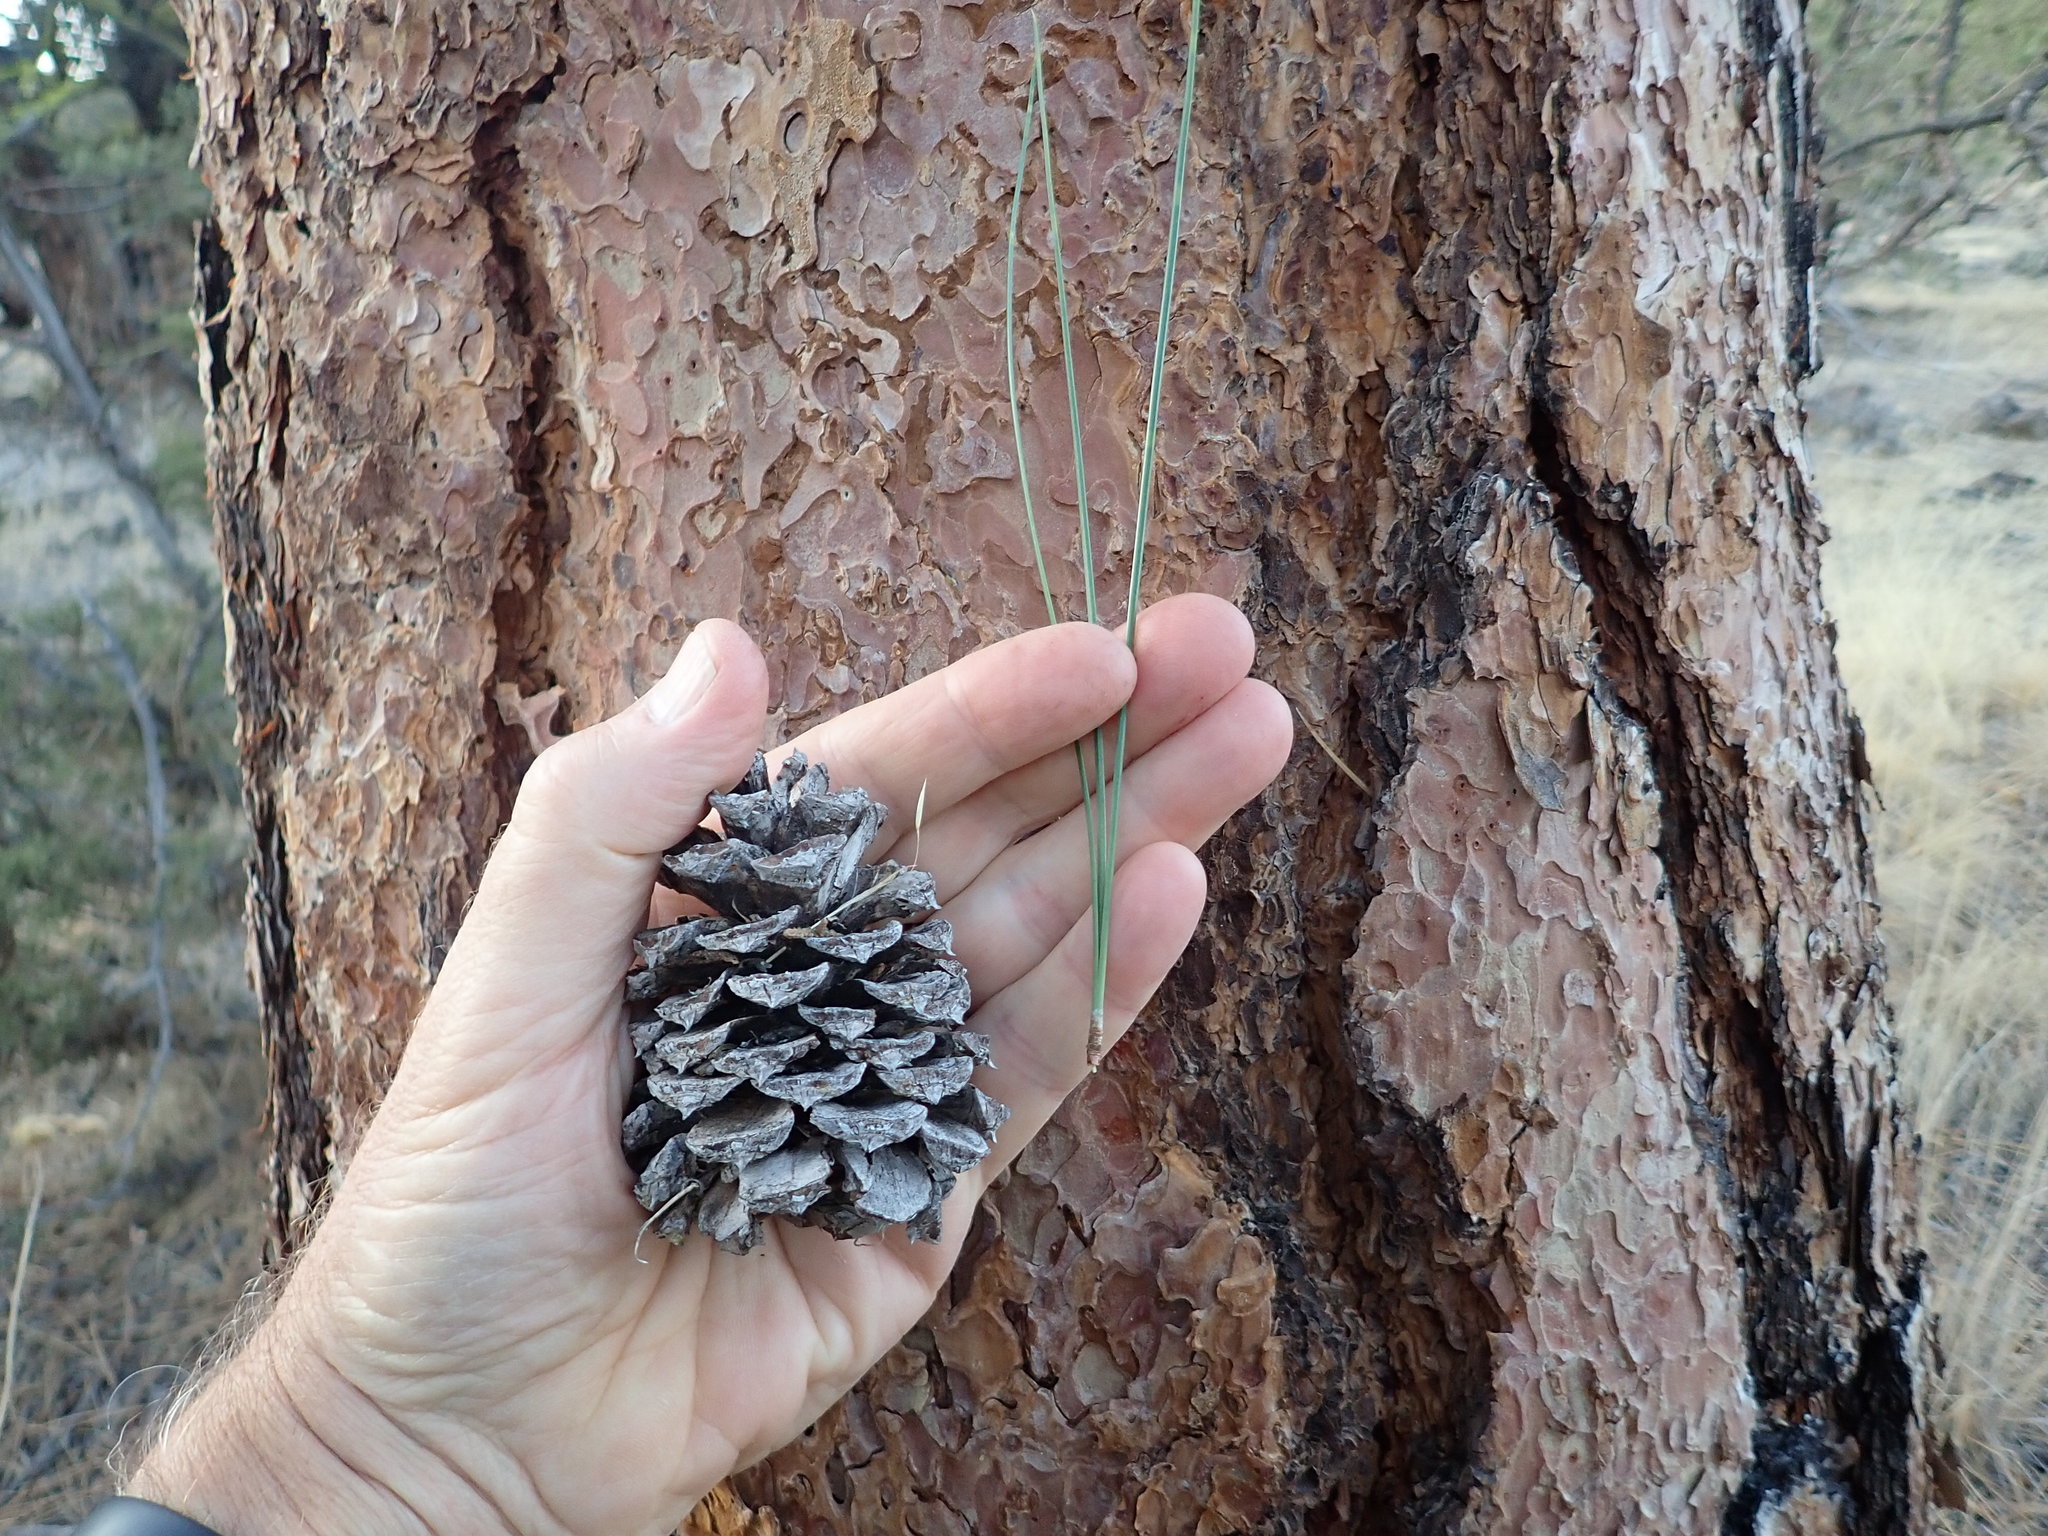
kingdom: Plantae
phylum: Tracheophyta
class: Pinopsida
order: Pinales
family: Pinaceae
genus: Pinus
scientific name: Pinus ponderosa
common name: Western yellow-pine
